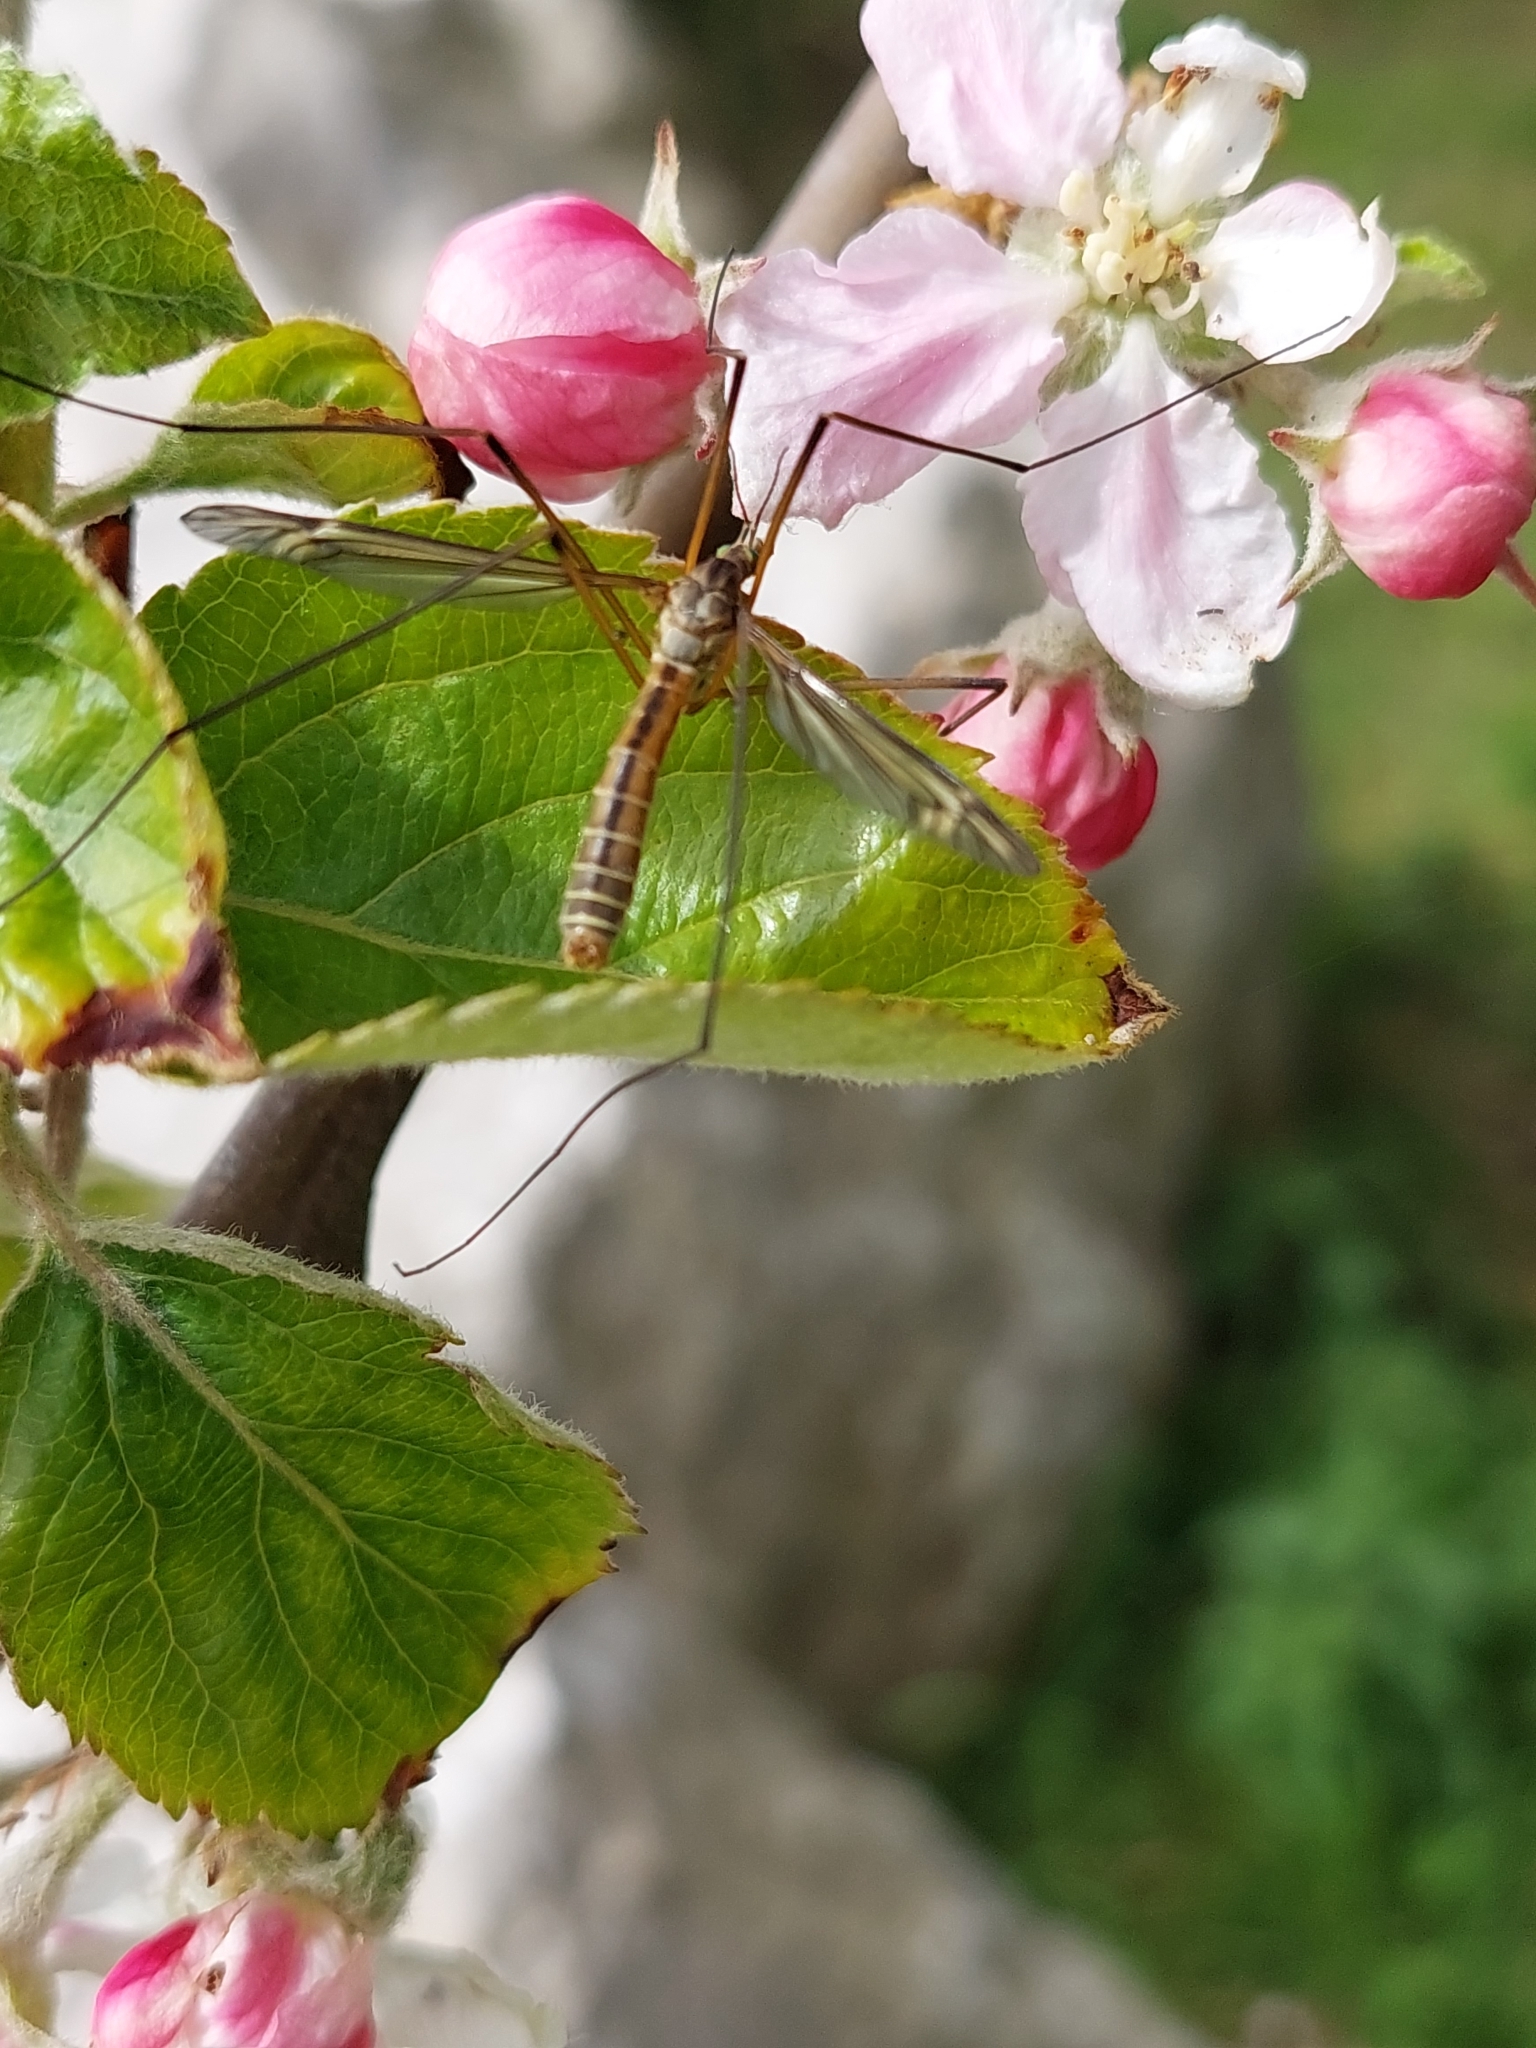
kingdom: Animalia
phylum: Arthropoda
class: Insecta
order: Diptera
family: Tipulidae
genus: Tipula
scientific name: Tipula vernalis
